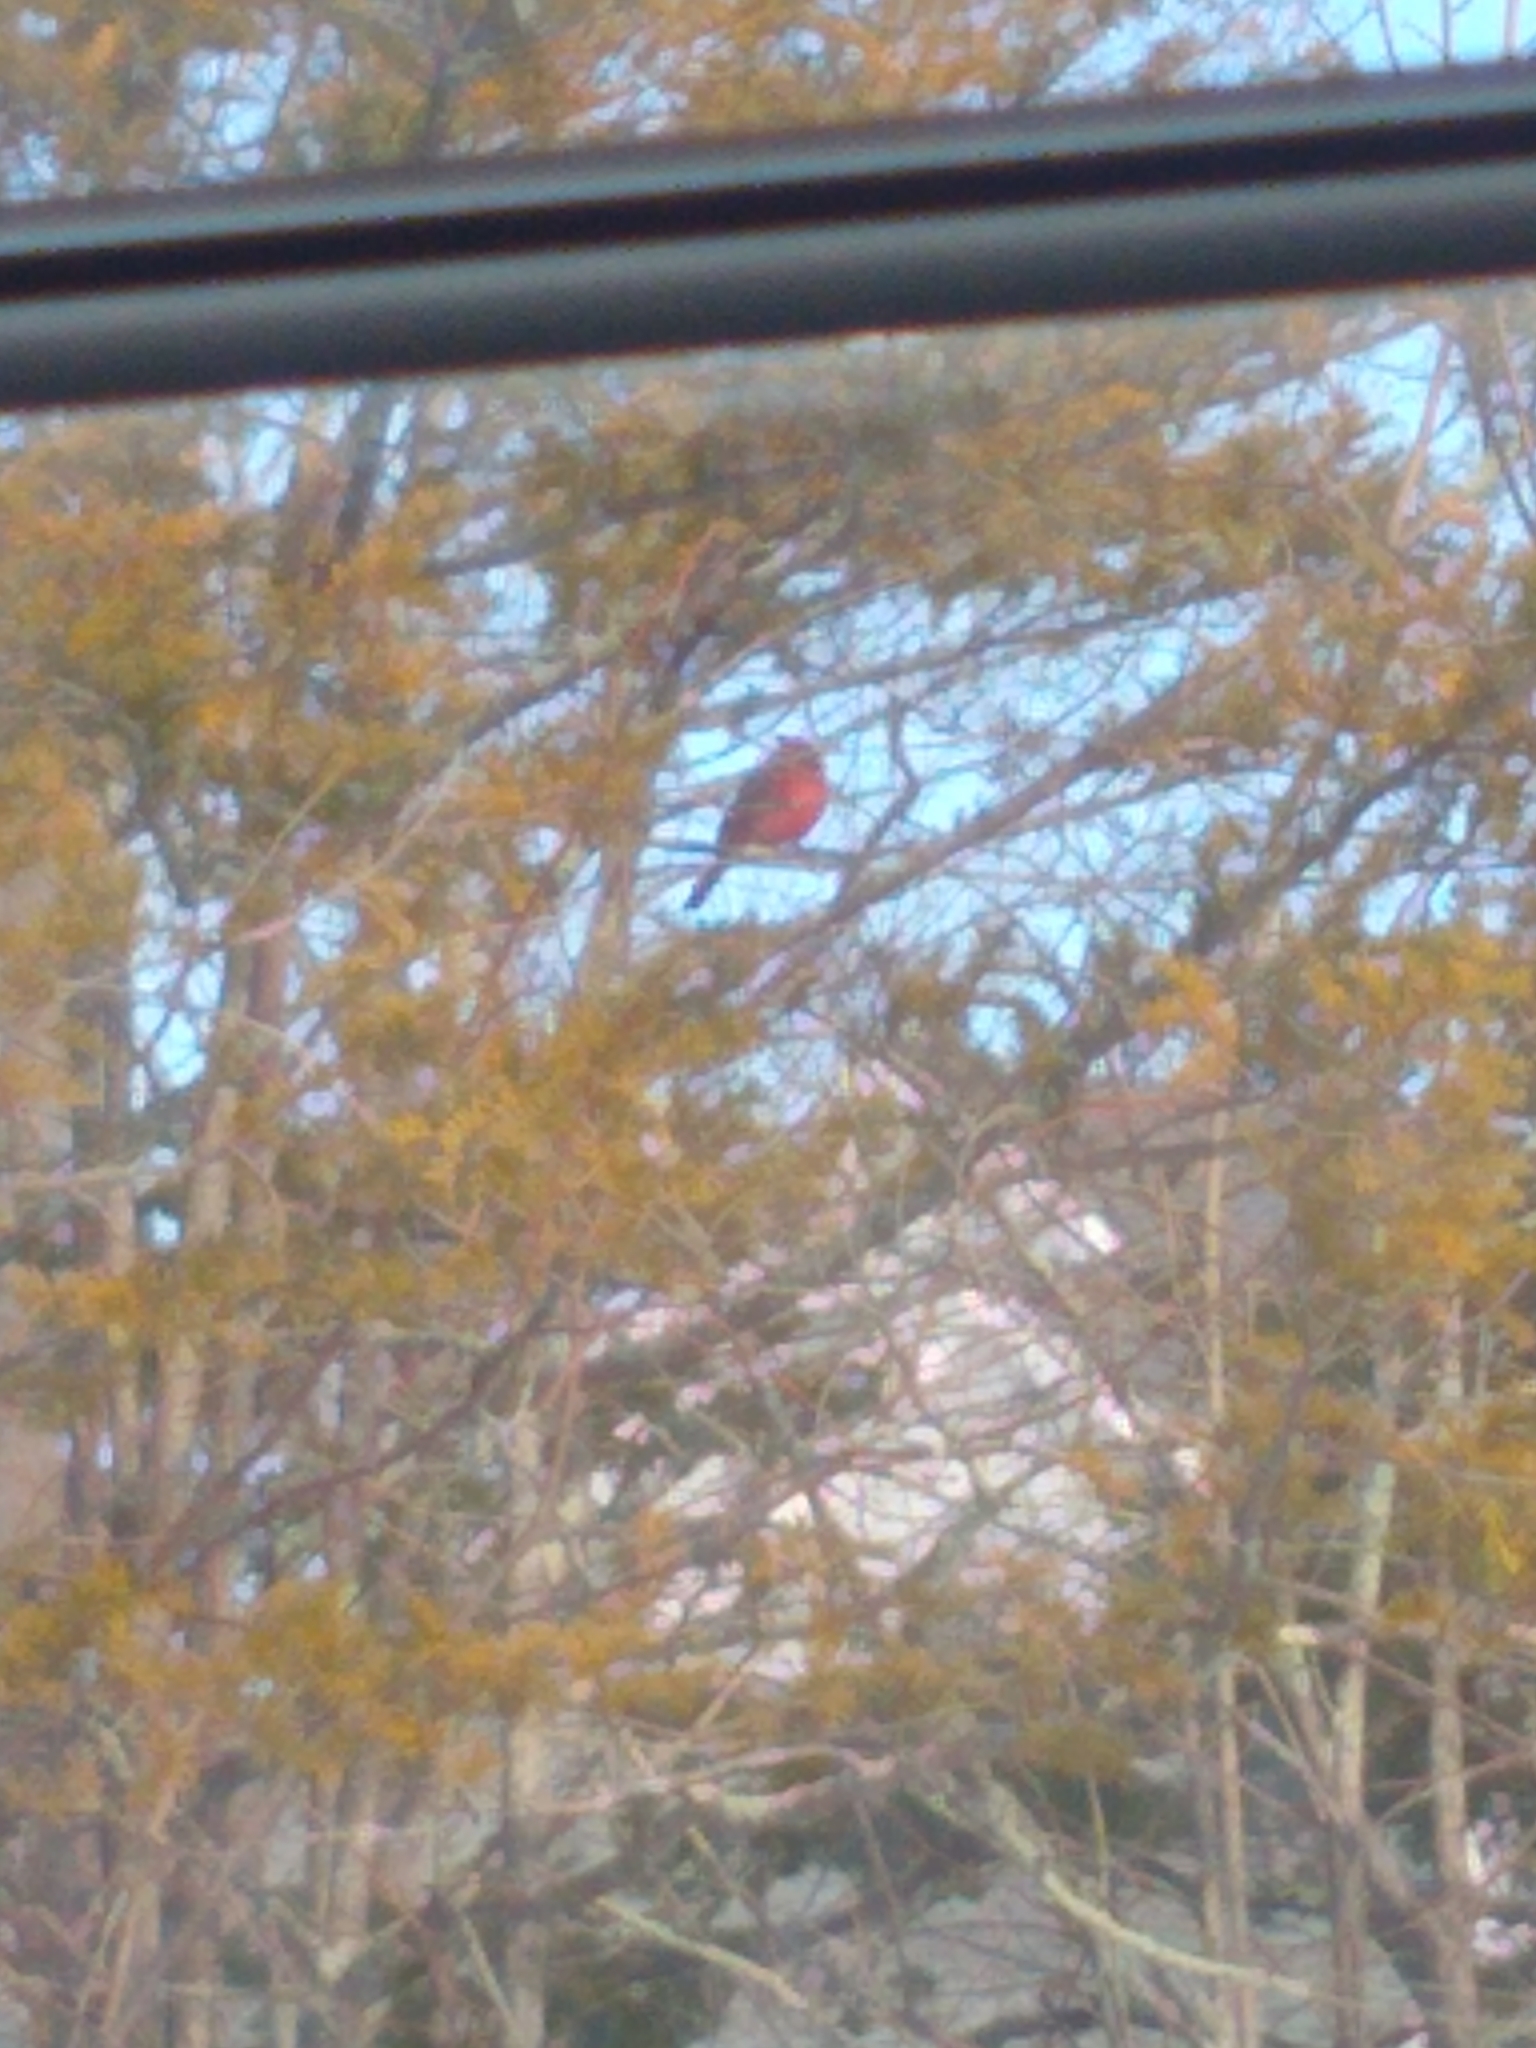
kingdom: Animalia
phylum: Chordata
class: Aves
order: Passeriformes
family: Cardinalidae
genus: Cardinalis
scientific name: Cardinalis cardinalis
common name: Northern cardinal
